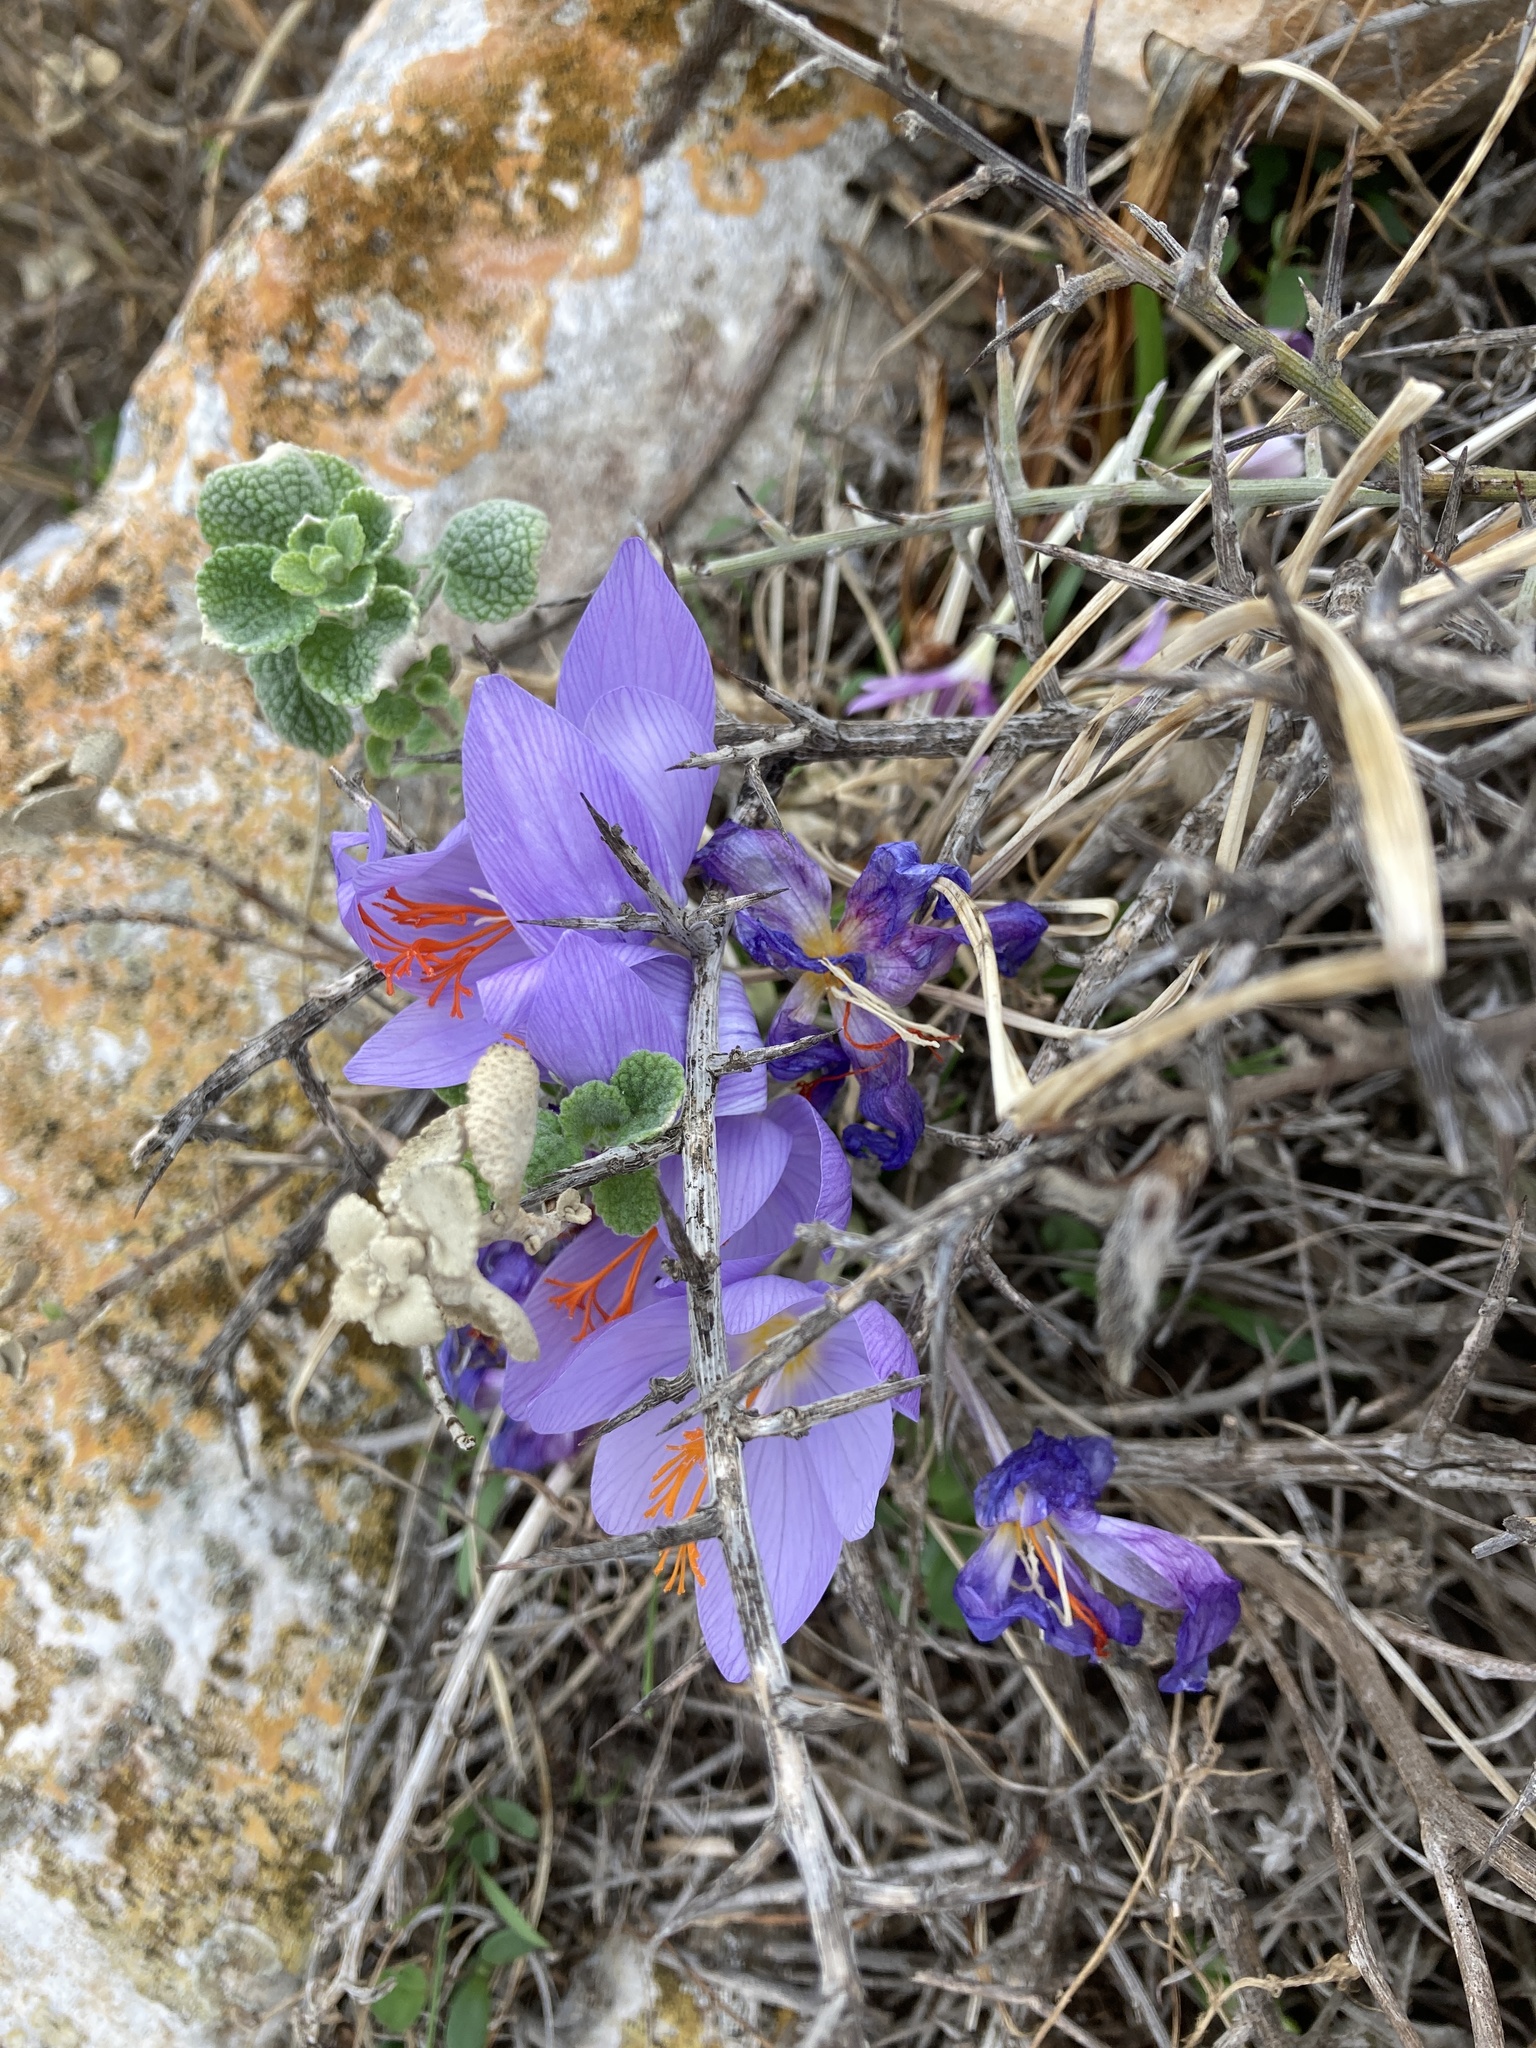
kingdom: Plantae
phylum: Tracheophyta
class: Liliopsida
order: Asparagales
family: Iridaceae
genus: Crocus
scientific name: Crocus tournefortii
